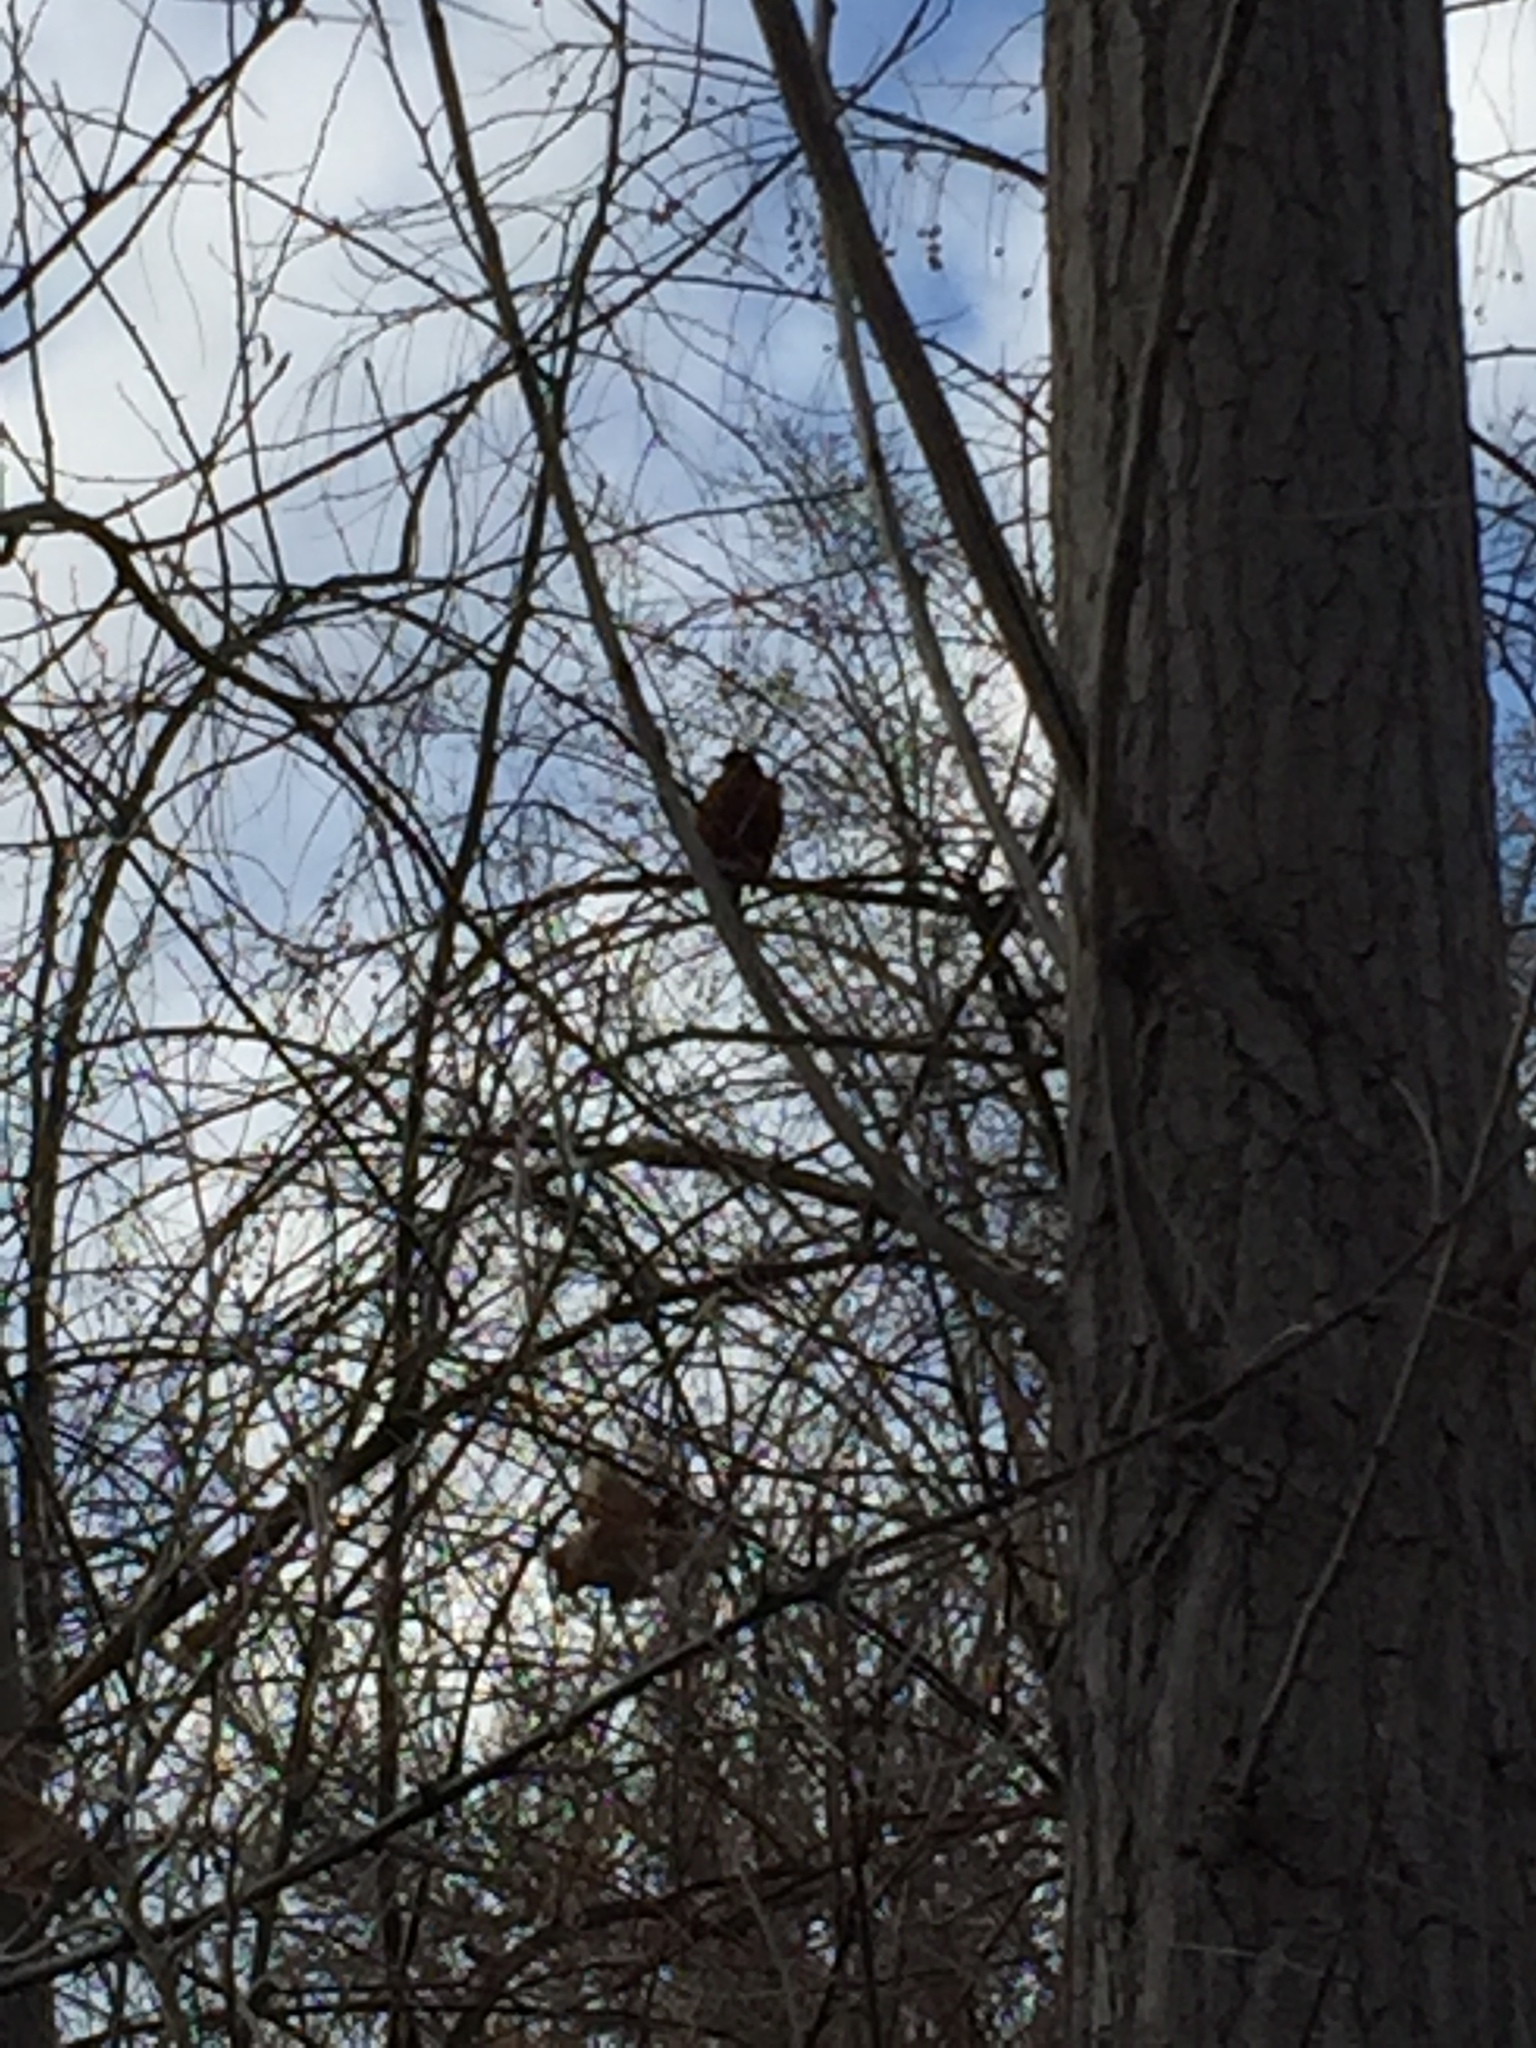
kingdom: Animalia
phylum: Chordata
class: Aves
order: Passeriformes
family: Turdidae
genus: Turdus
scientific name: Turdus migratorius
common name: American robin
